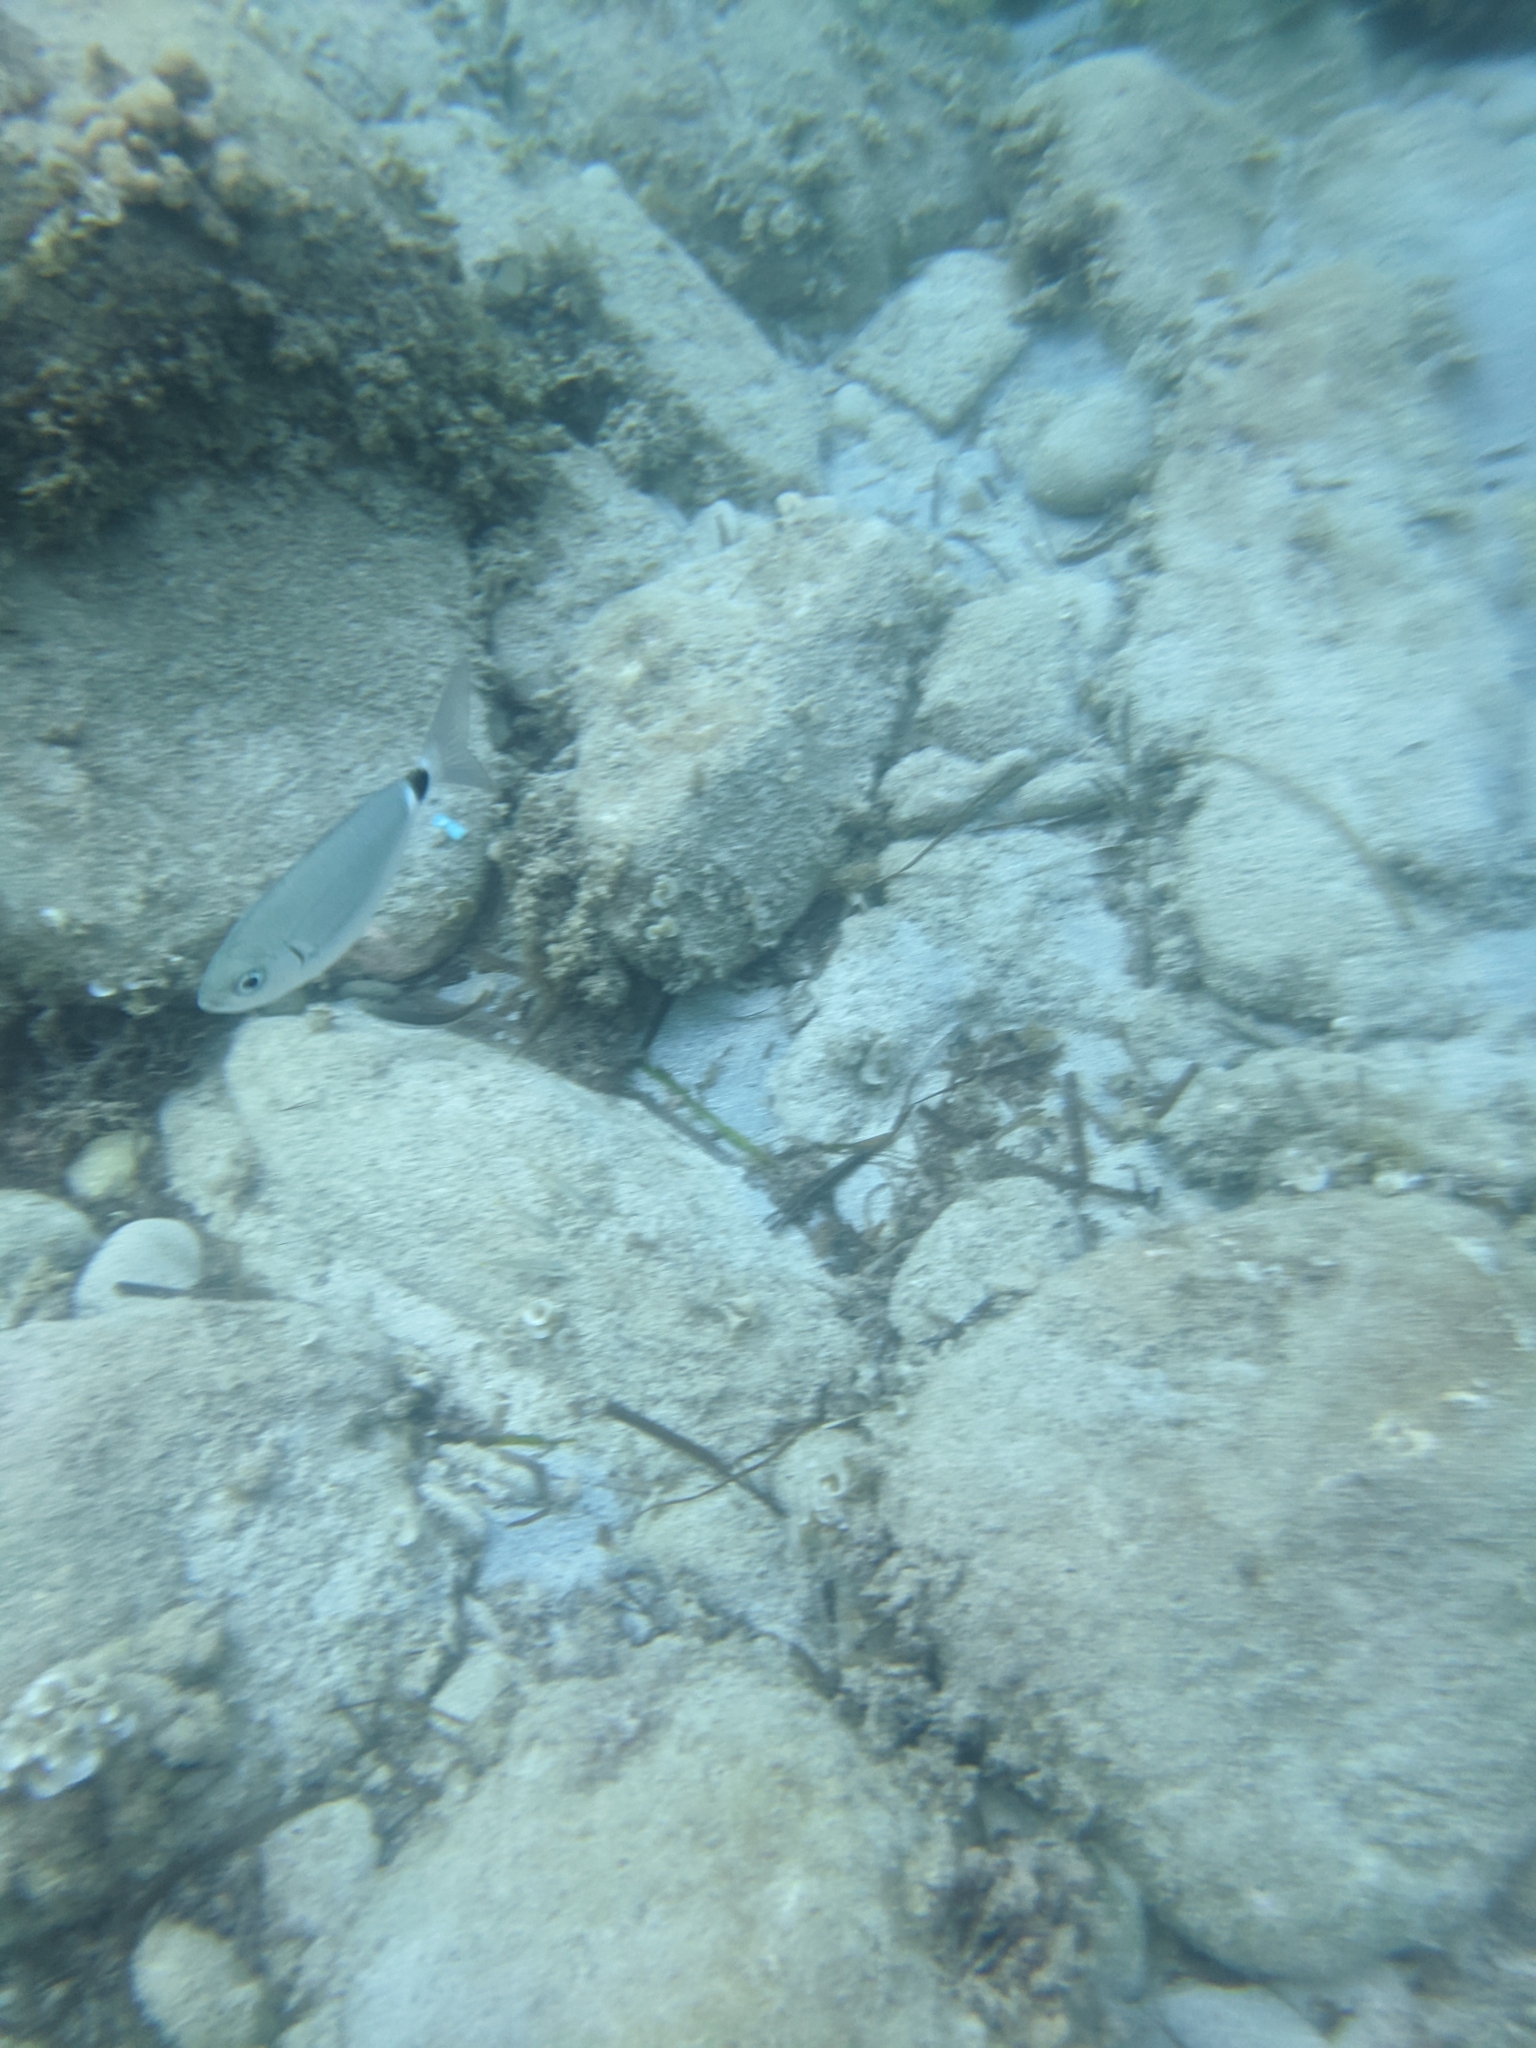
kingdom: Animalia
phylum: Chordata
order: Perciformes
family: Sparidae
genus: Oblada
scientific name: Oblada melanura
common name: Saddled seabream
